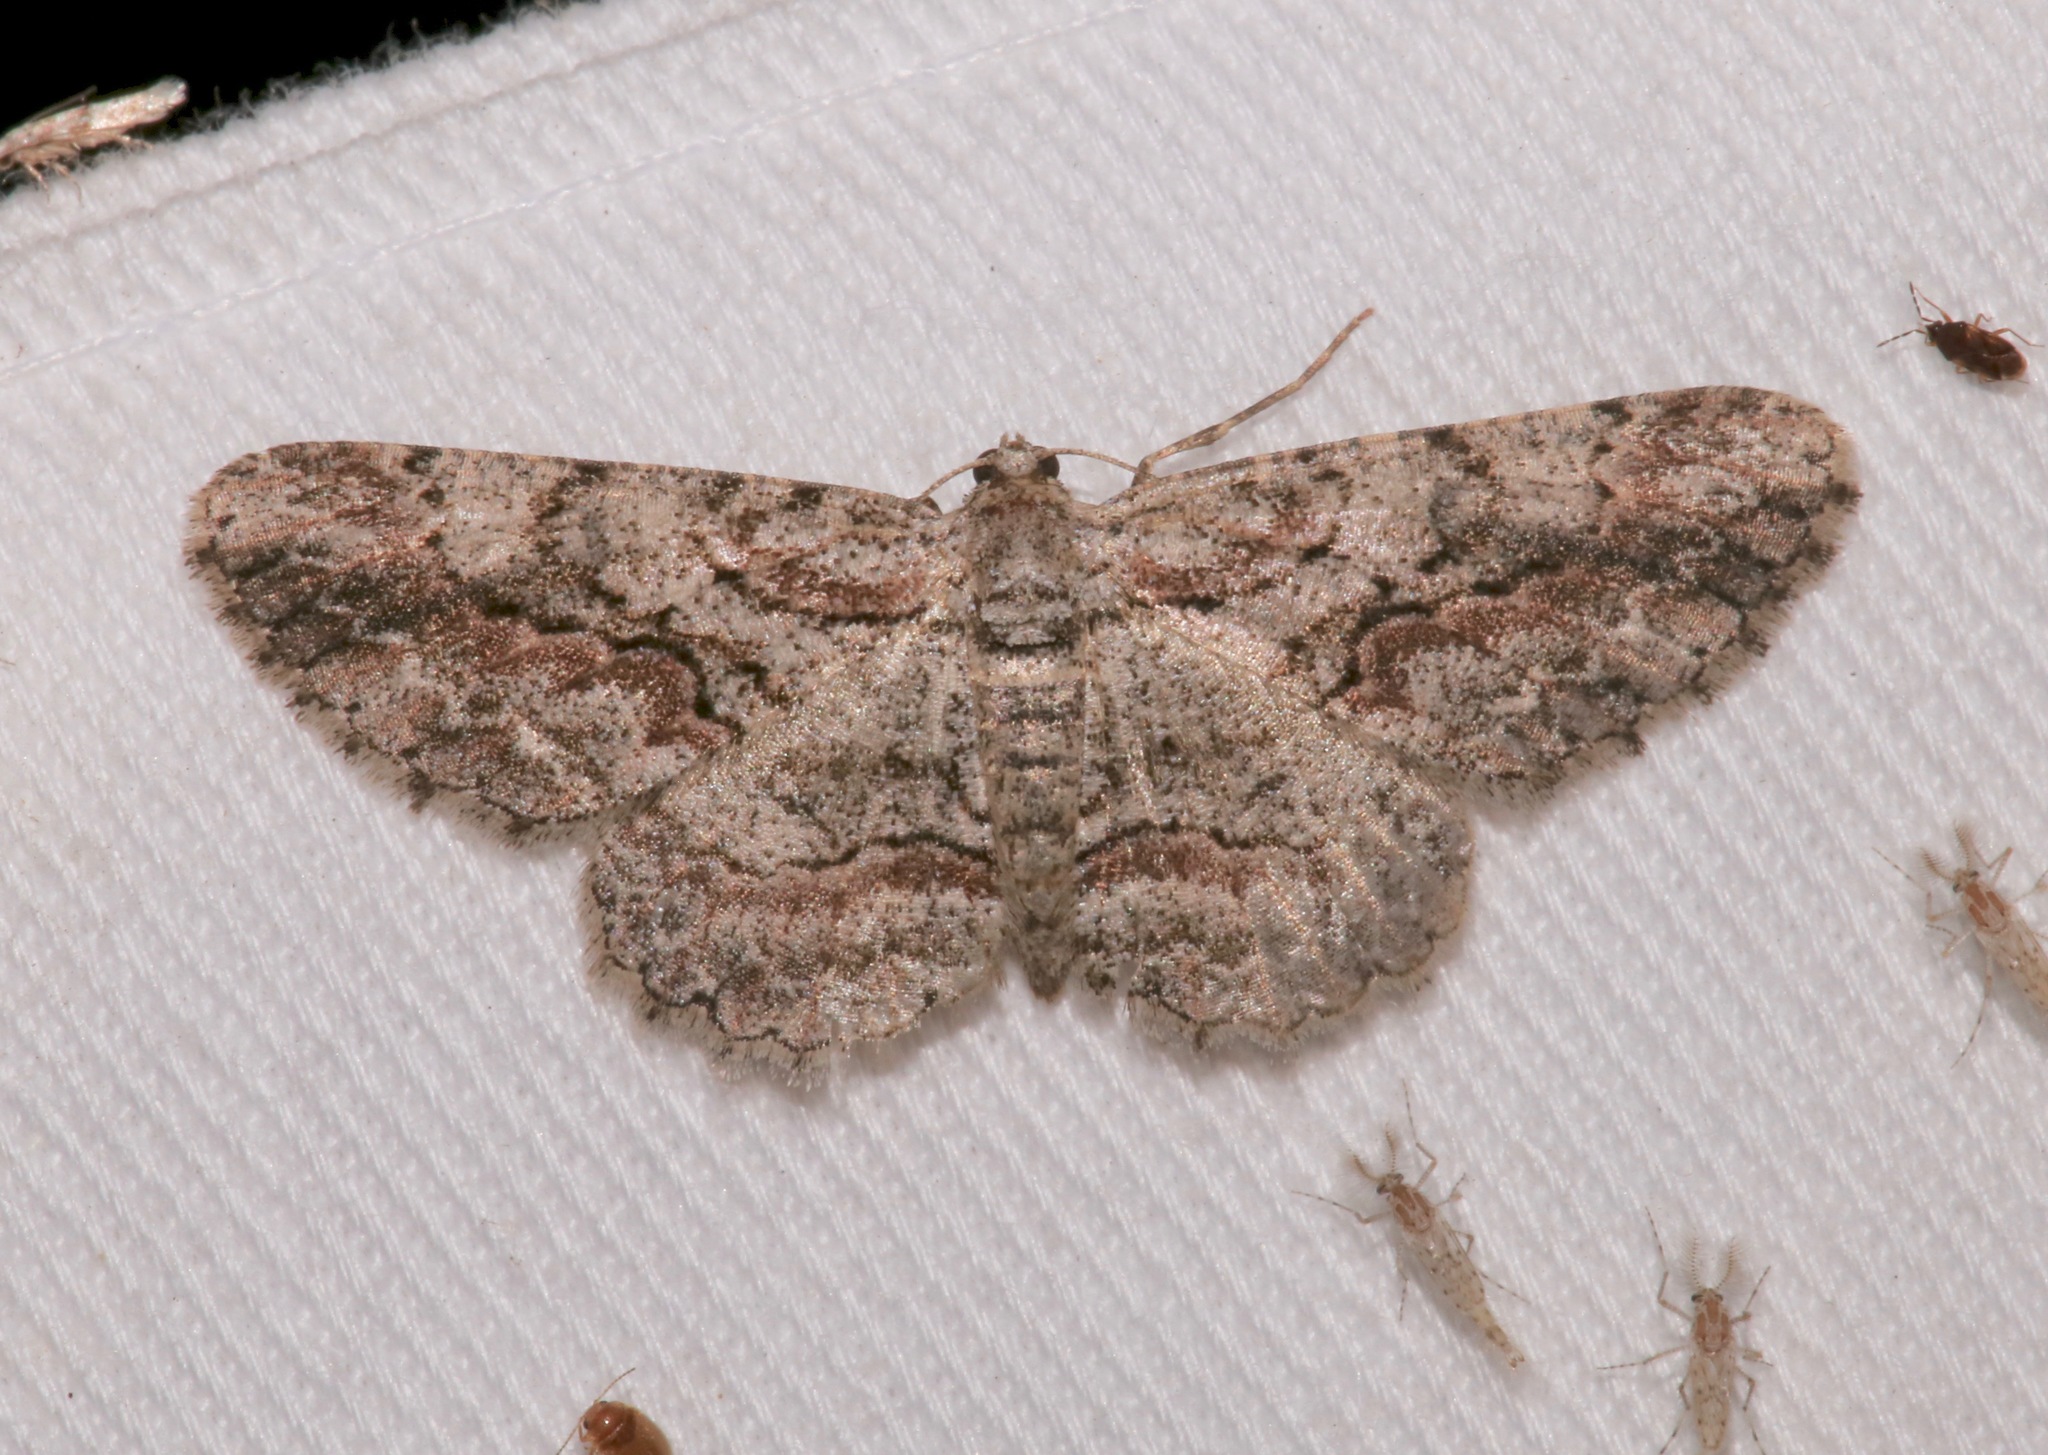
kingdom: Animalia
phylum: Arthropoda
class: Insecta
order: Lepidoptera
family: Geometridae
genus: Iridopsis
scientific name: Iridopsis defectaria
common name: Brown-shaded gray
